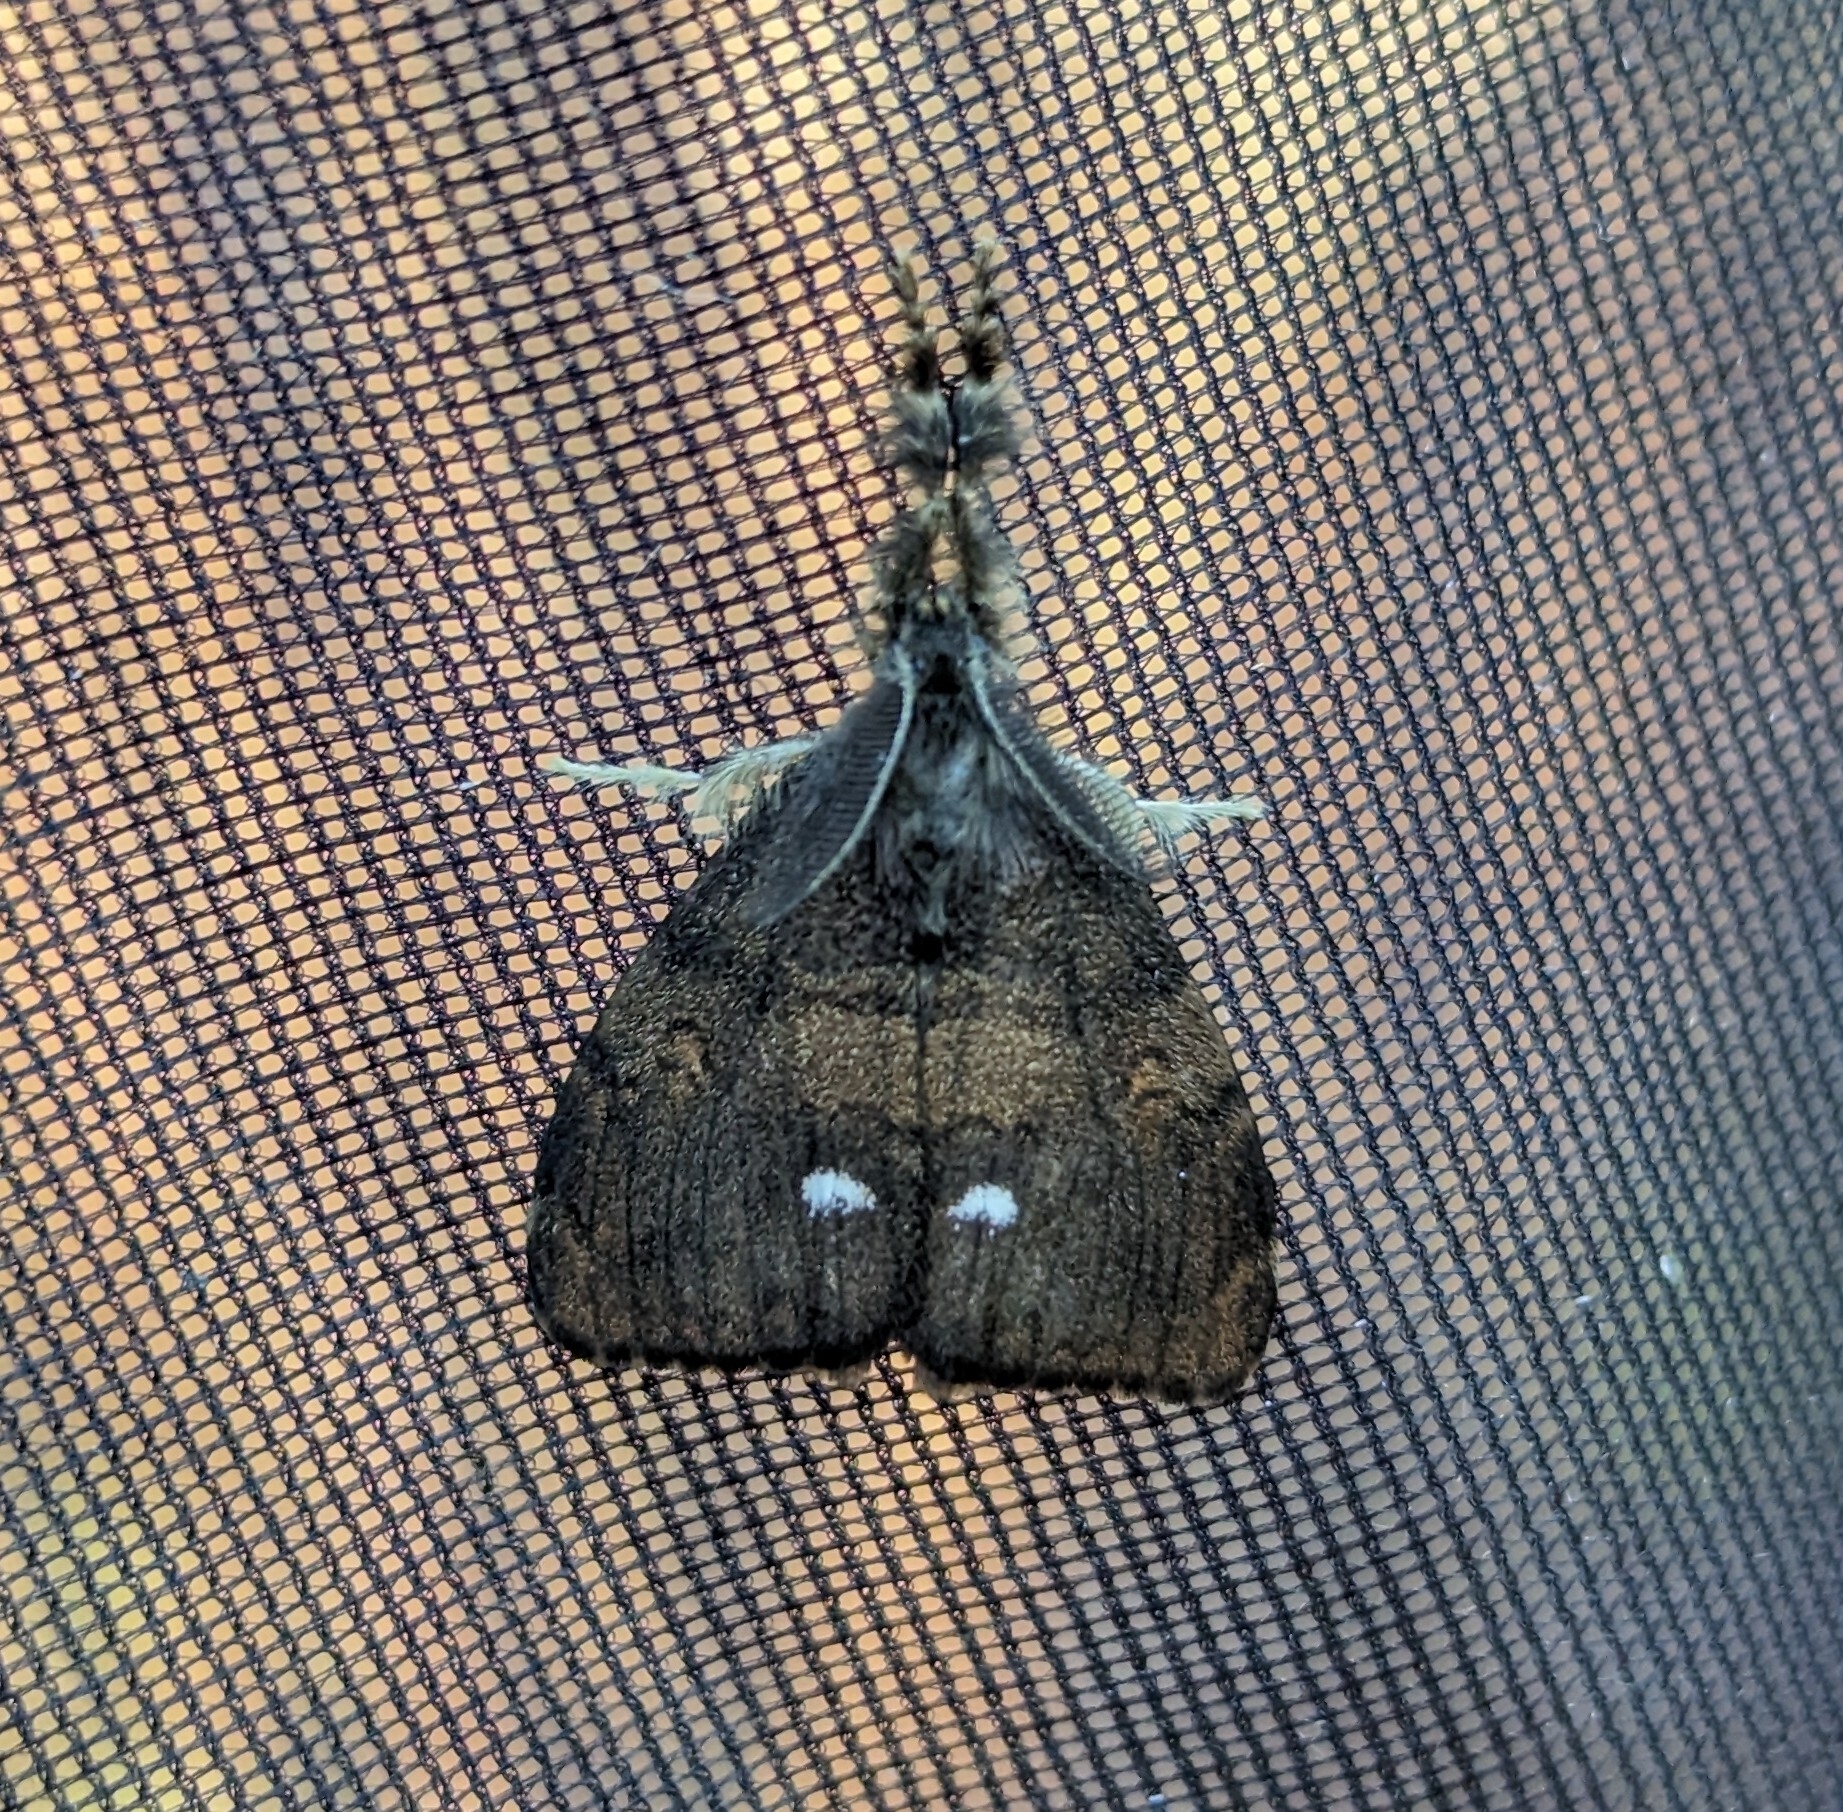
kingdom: Animalia
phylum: Arthropoda
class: Insecta
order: Lepidoptera
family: Erebidae
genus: Orgyia
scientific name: Orgyia antiqua
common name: Vapourer
